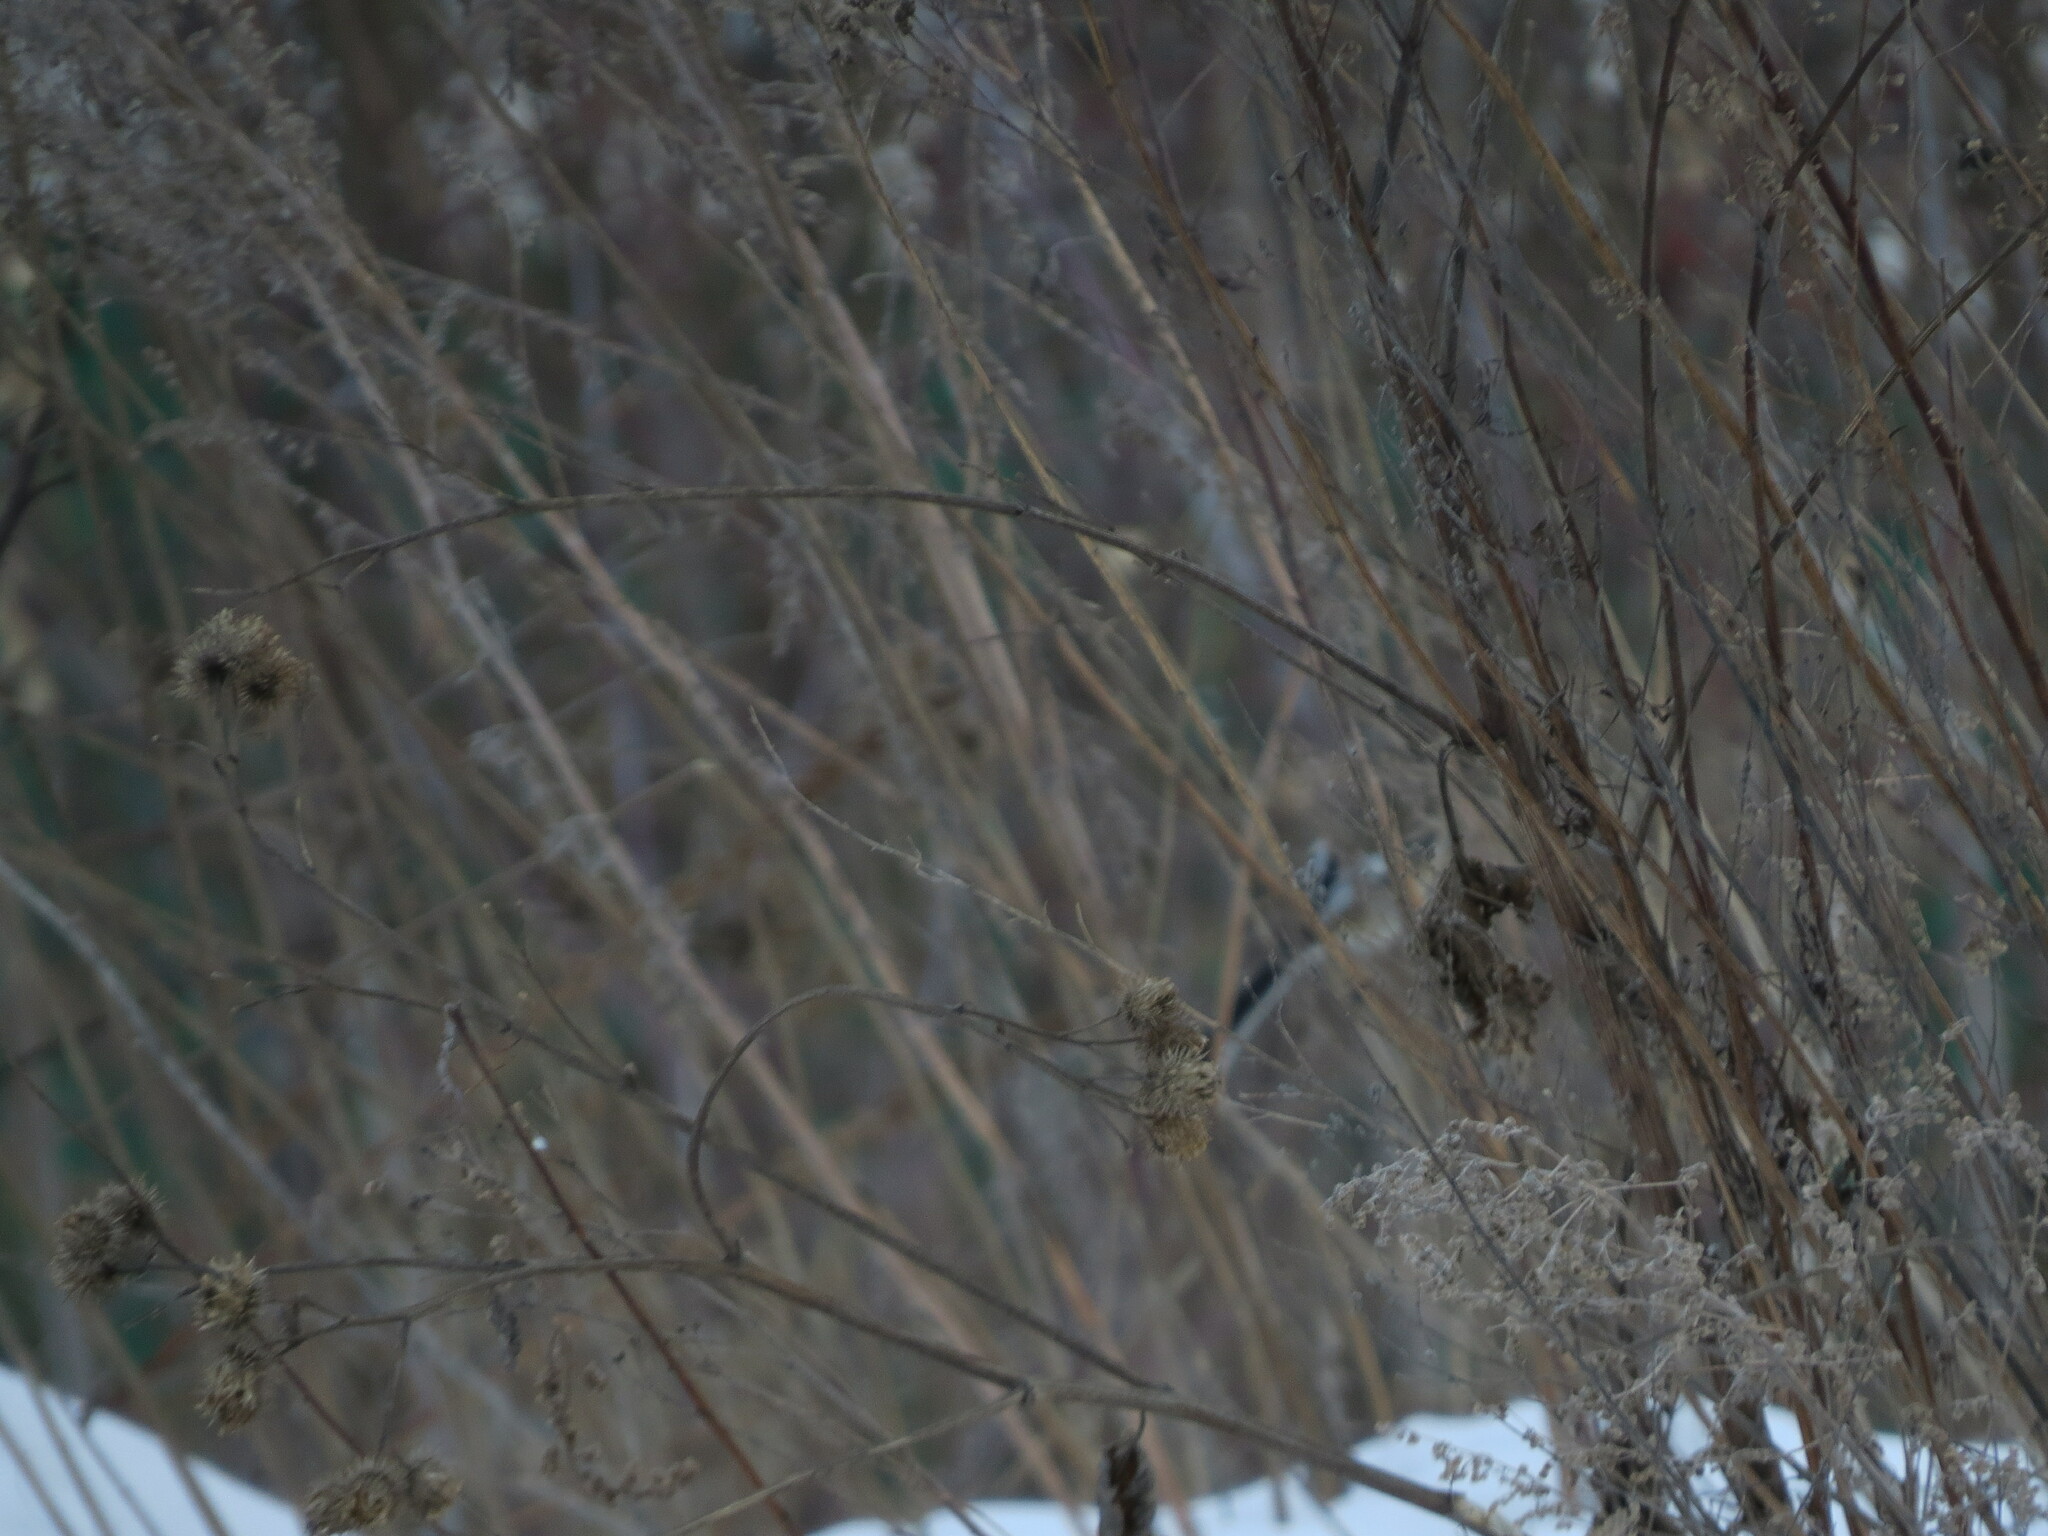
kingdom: Animalia
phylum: Chordata
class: Aves
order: Passeriformes
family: Fringillidae
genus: Carpodacus
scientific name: Carpodacus sibiricus
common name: Long-tailed rosefinch
